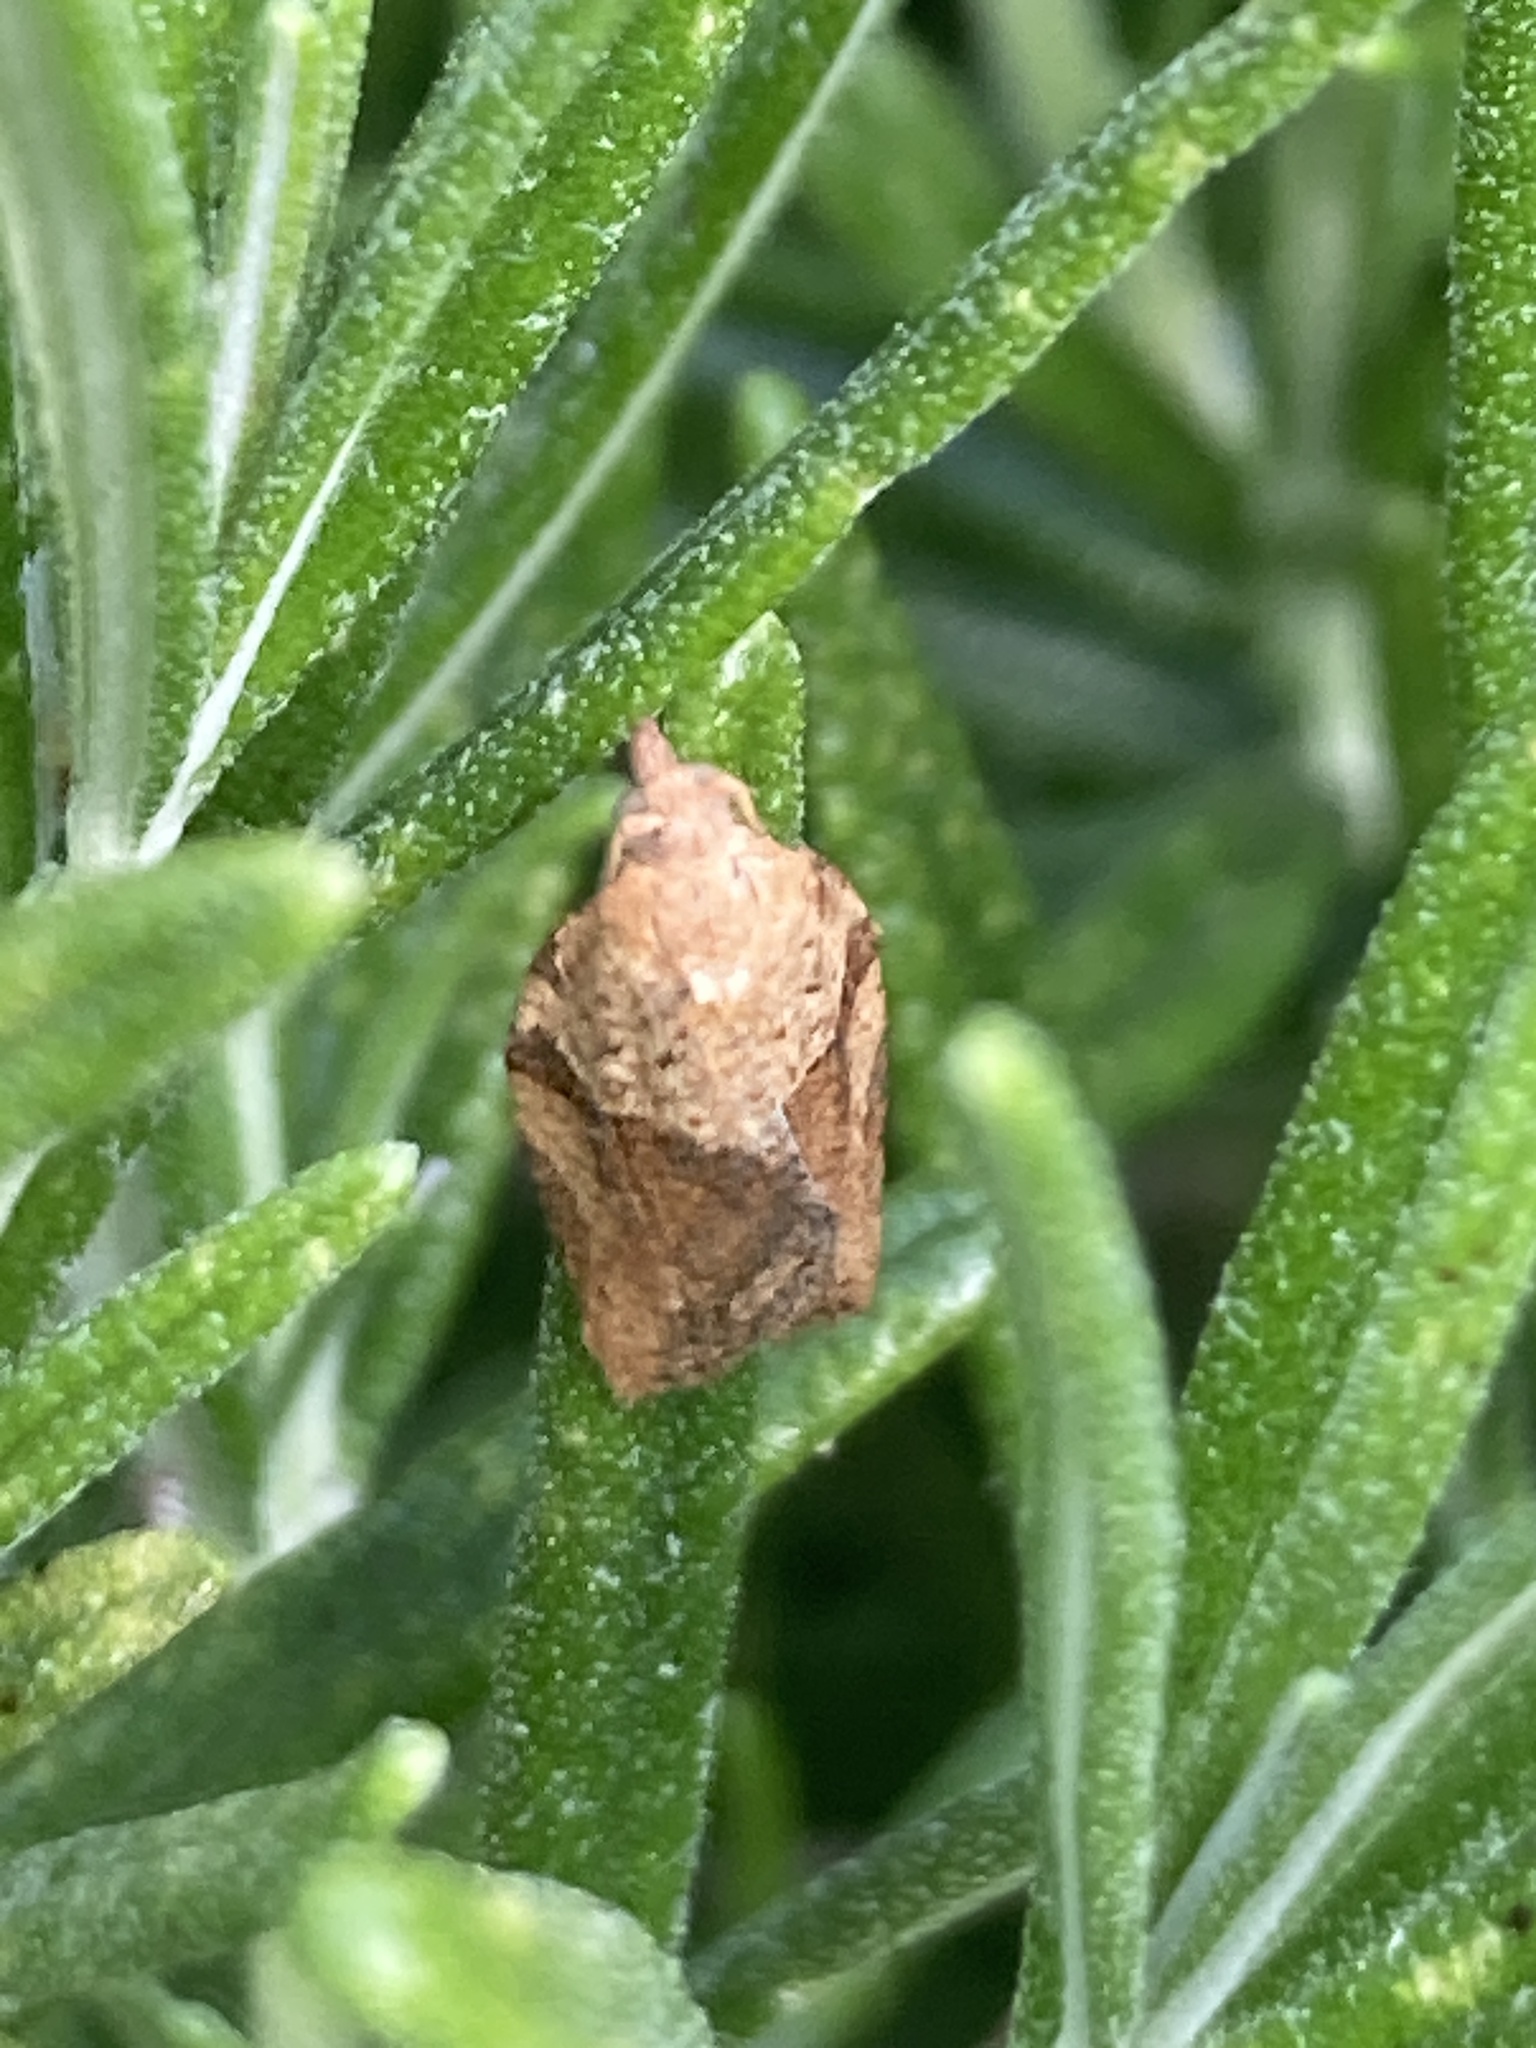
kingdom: Animalia
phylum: Arthropoda
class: Insecta
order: Lepidoptera
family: Tortricidae
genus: Epiphyas
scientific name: Epiphyas postvittana
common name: Light brown apple moth
